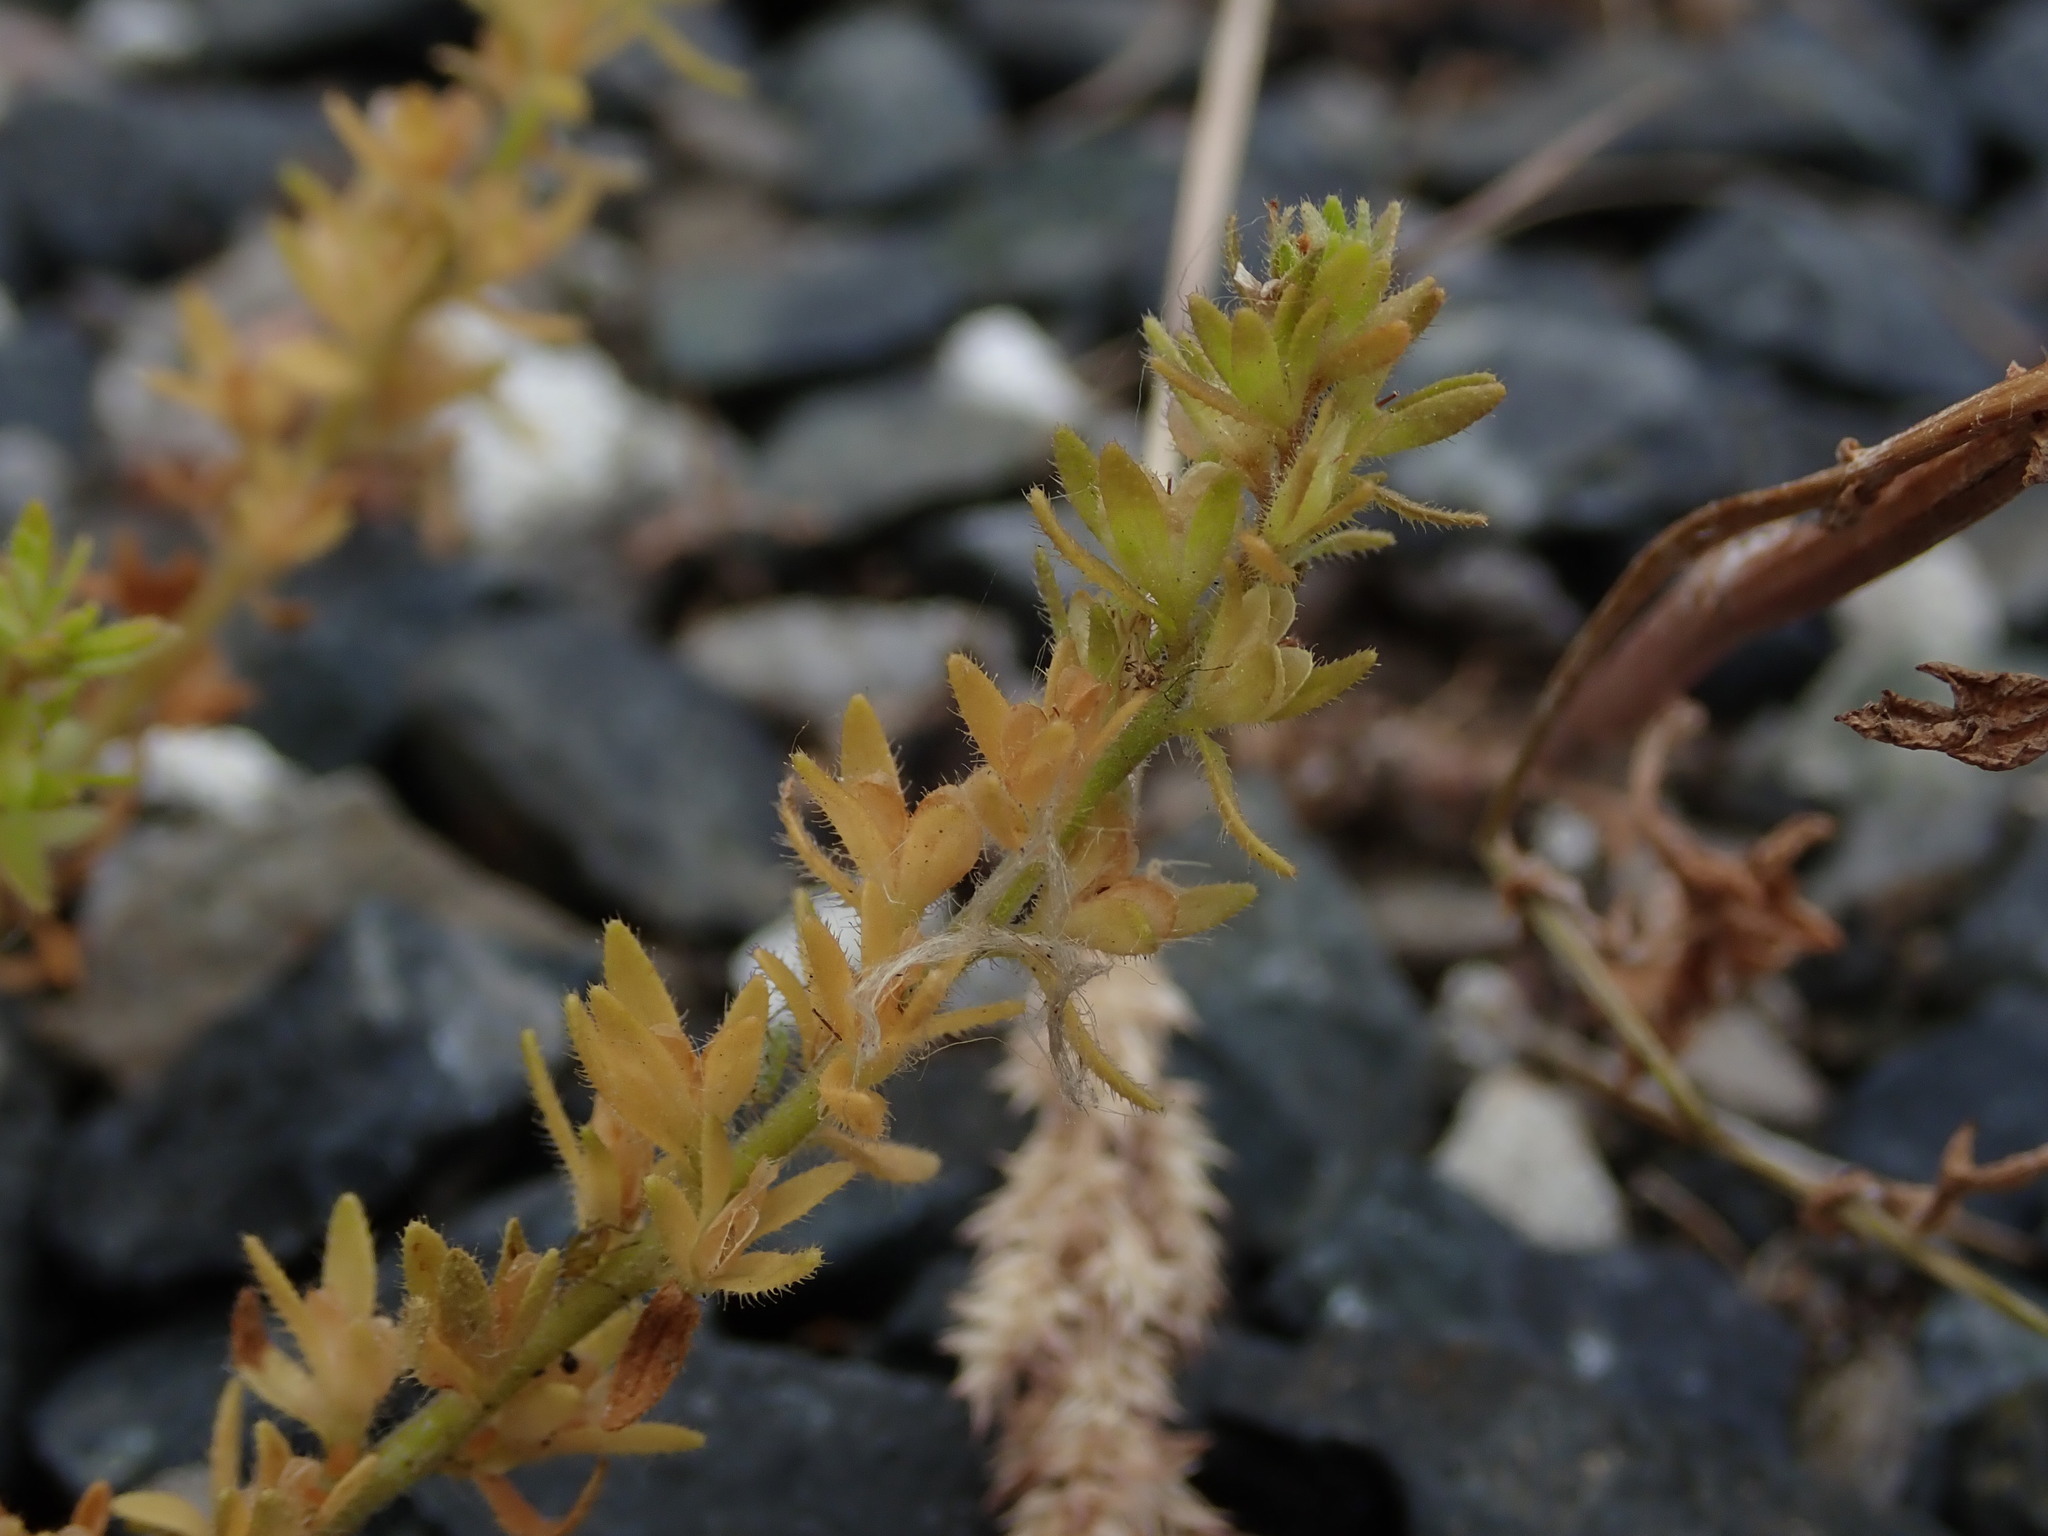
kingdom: Plantae
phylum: Tracheophyta
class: Magnoliopsida
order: Lamiales
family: Plantaginaceae
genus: Veronica
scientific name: Veronica arvensis
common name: Corn speedwell
